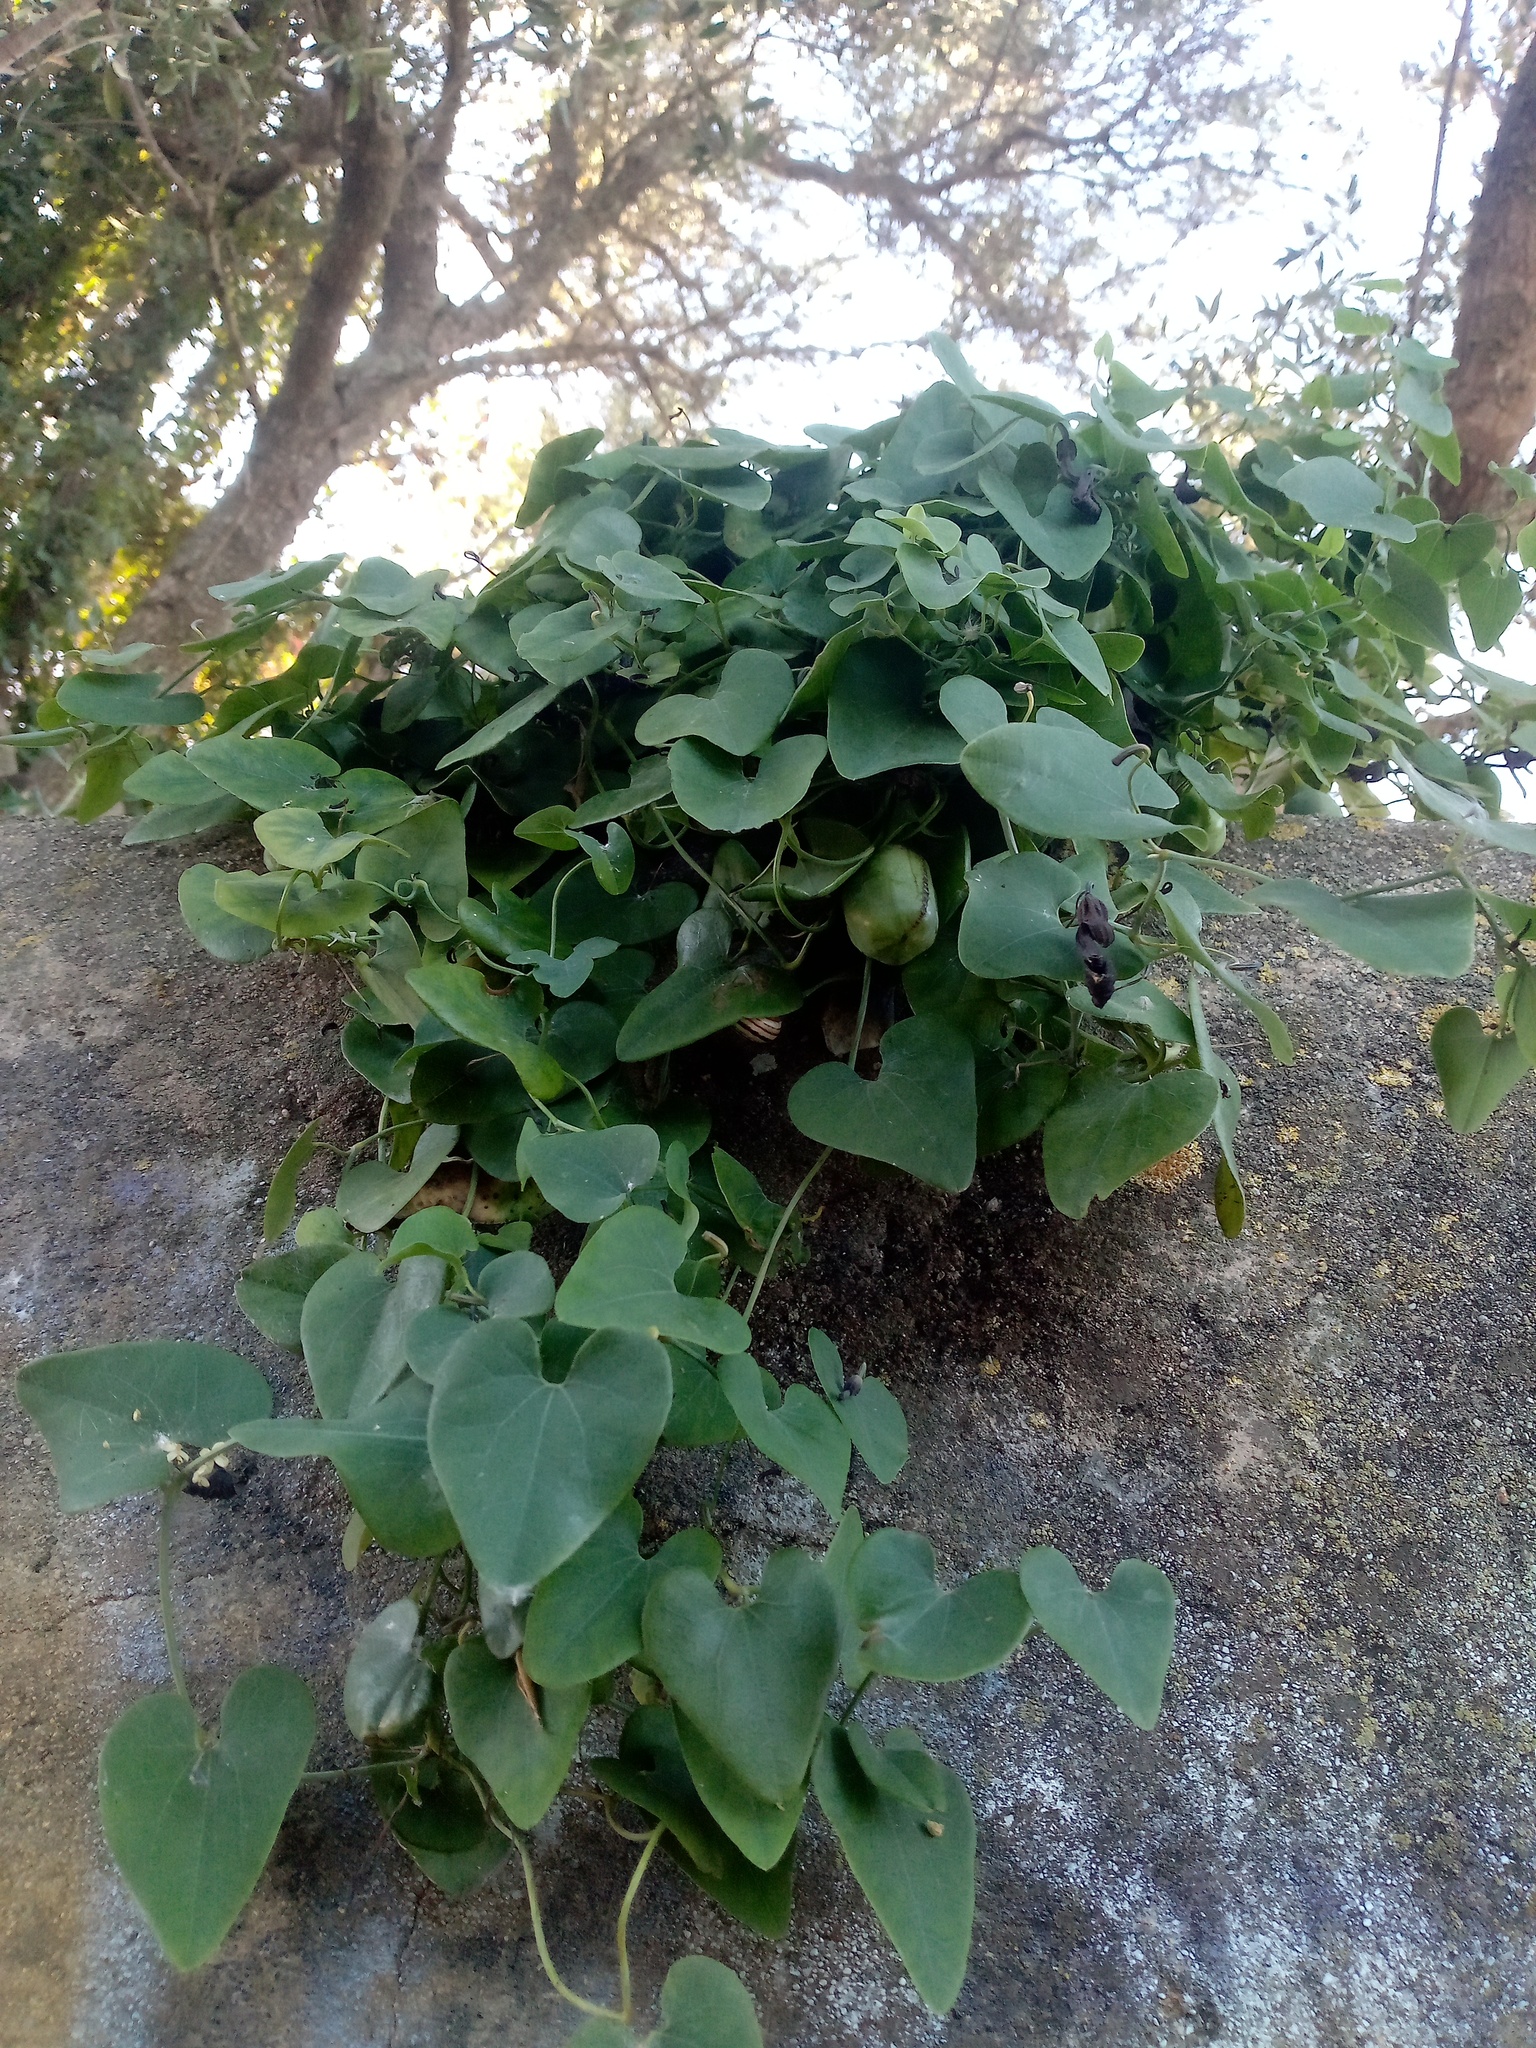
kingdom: Plantae
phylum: Tracheophyta
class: Magnoliopsida
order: Piperales
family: Aristolochiaceae
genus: Aristolochia
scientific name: Aristolochia baetica
